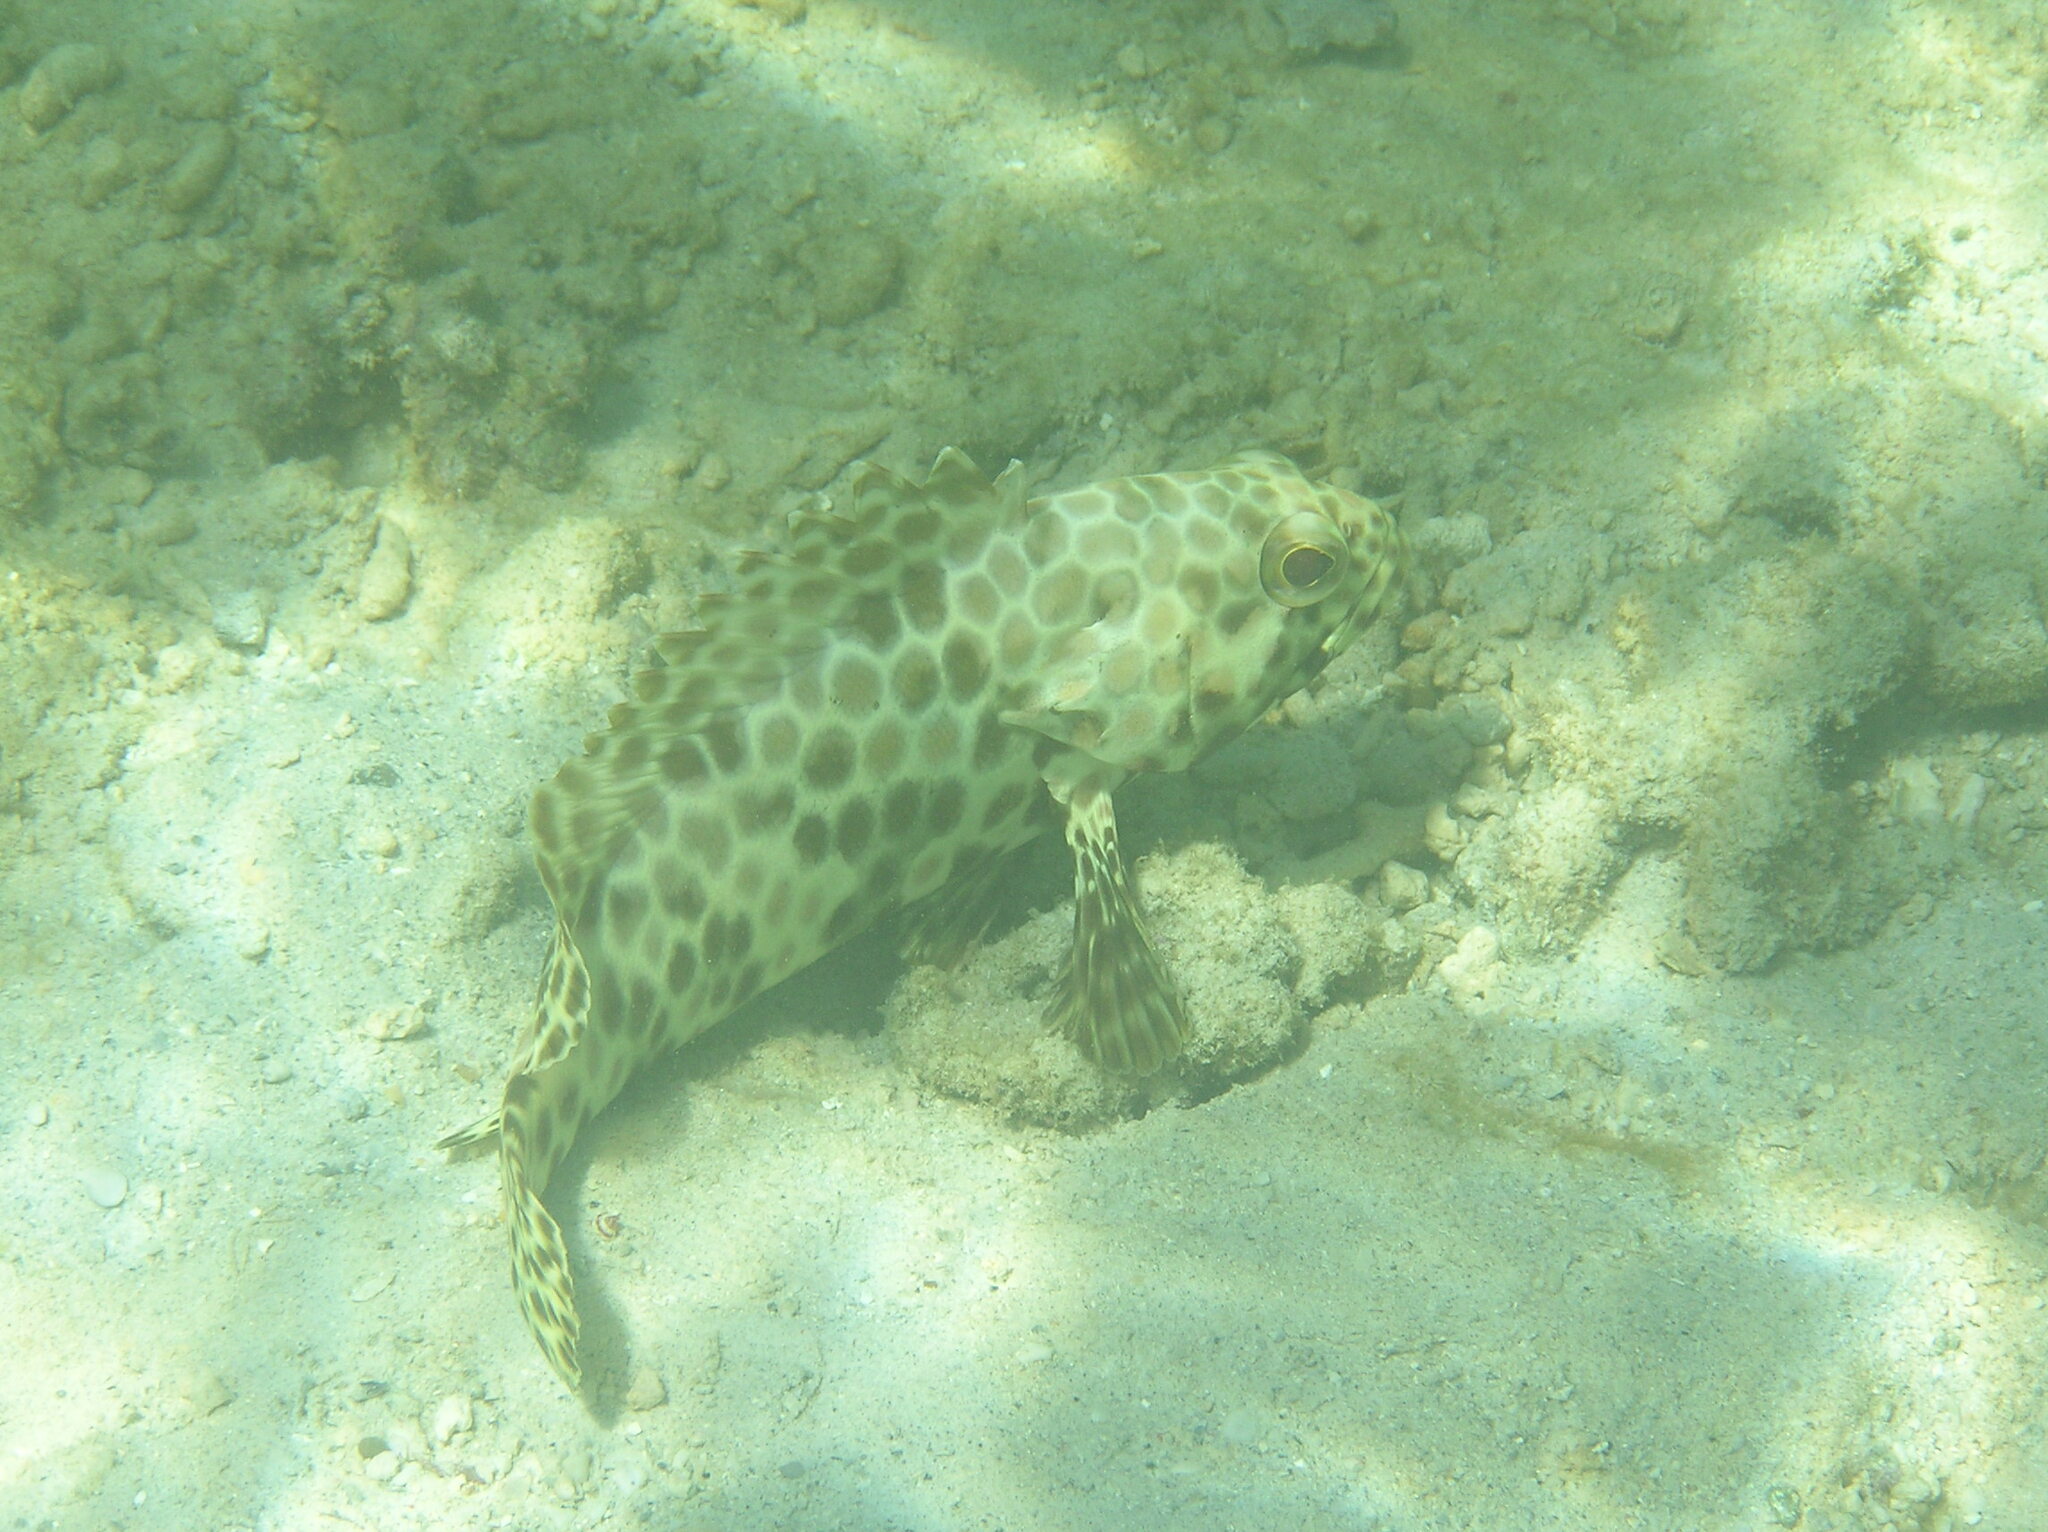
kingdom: Animalia
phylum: Chordata
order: Perciformes
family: Serranidae
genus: Epinephelus
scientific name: Epinephelus quoyanus
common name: Longfin grouper
